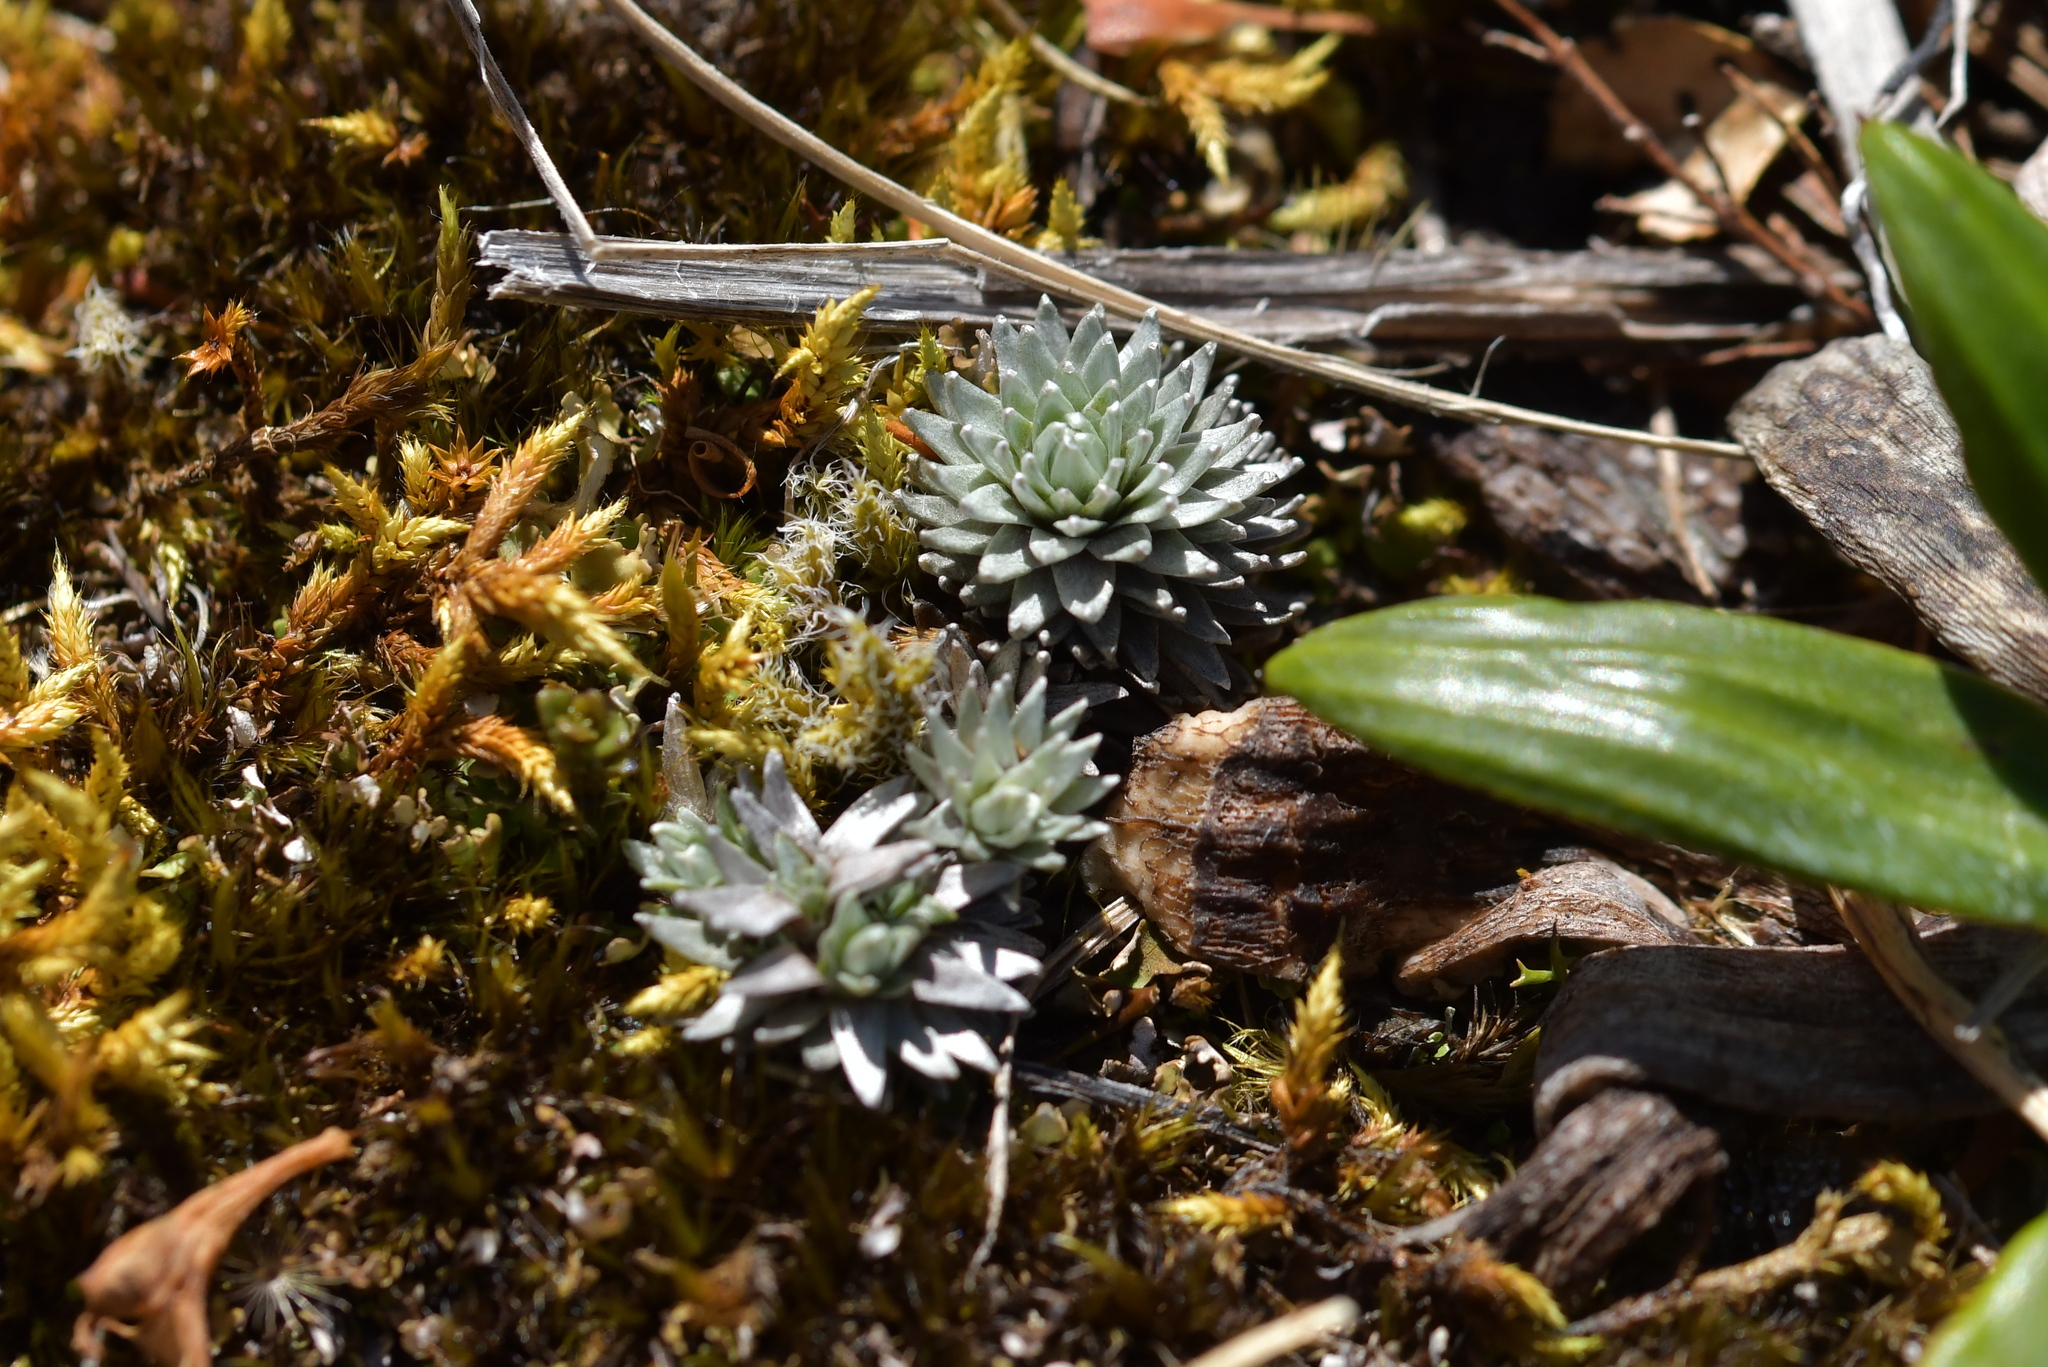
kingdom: Plantae
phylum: Tracheophyta
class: Magnoliopsida
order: Asterales
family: Asteraceae
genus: Raoulia
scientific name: Raoulia grandiflora
